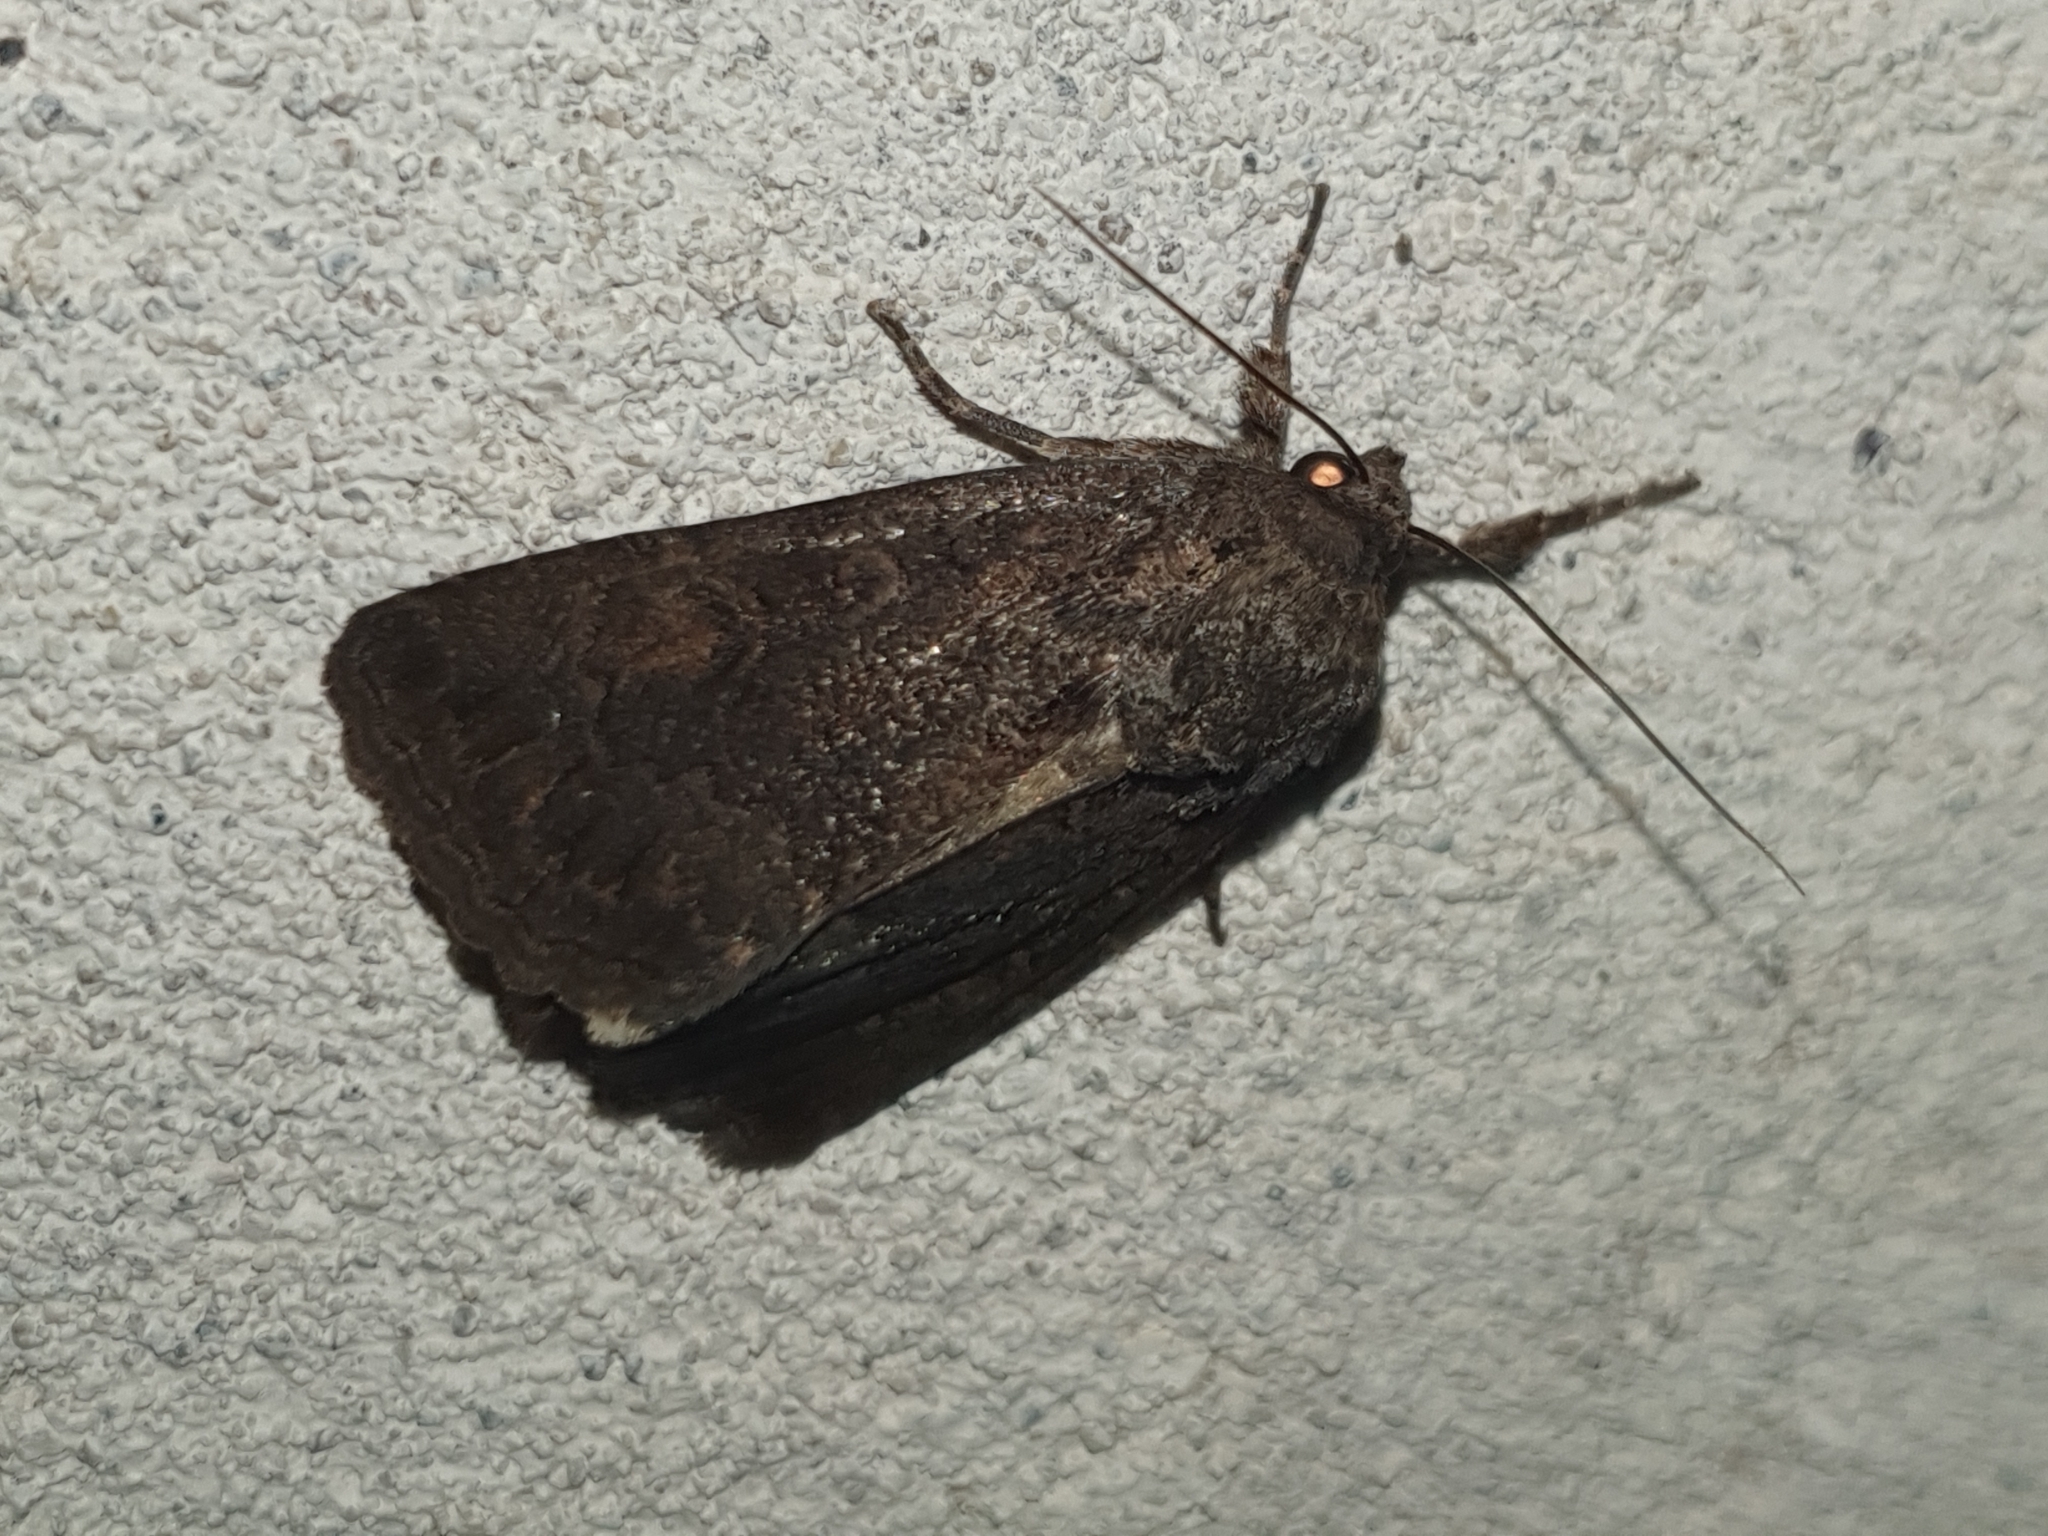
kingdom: Animalia
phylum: Arthropoda
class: Insecta
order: Lepidoptera
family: Noctuidae
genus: Thalpophila
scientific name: Thalpophila matura
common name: Straw underwing
